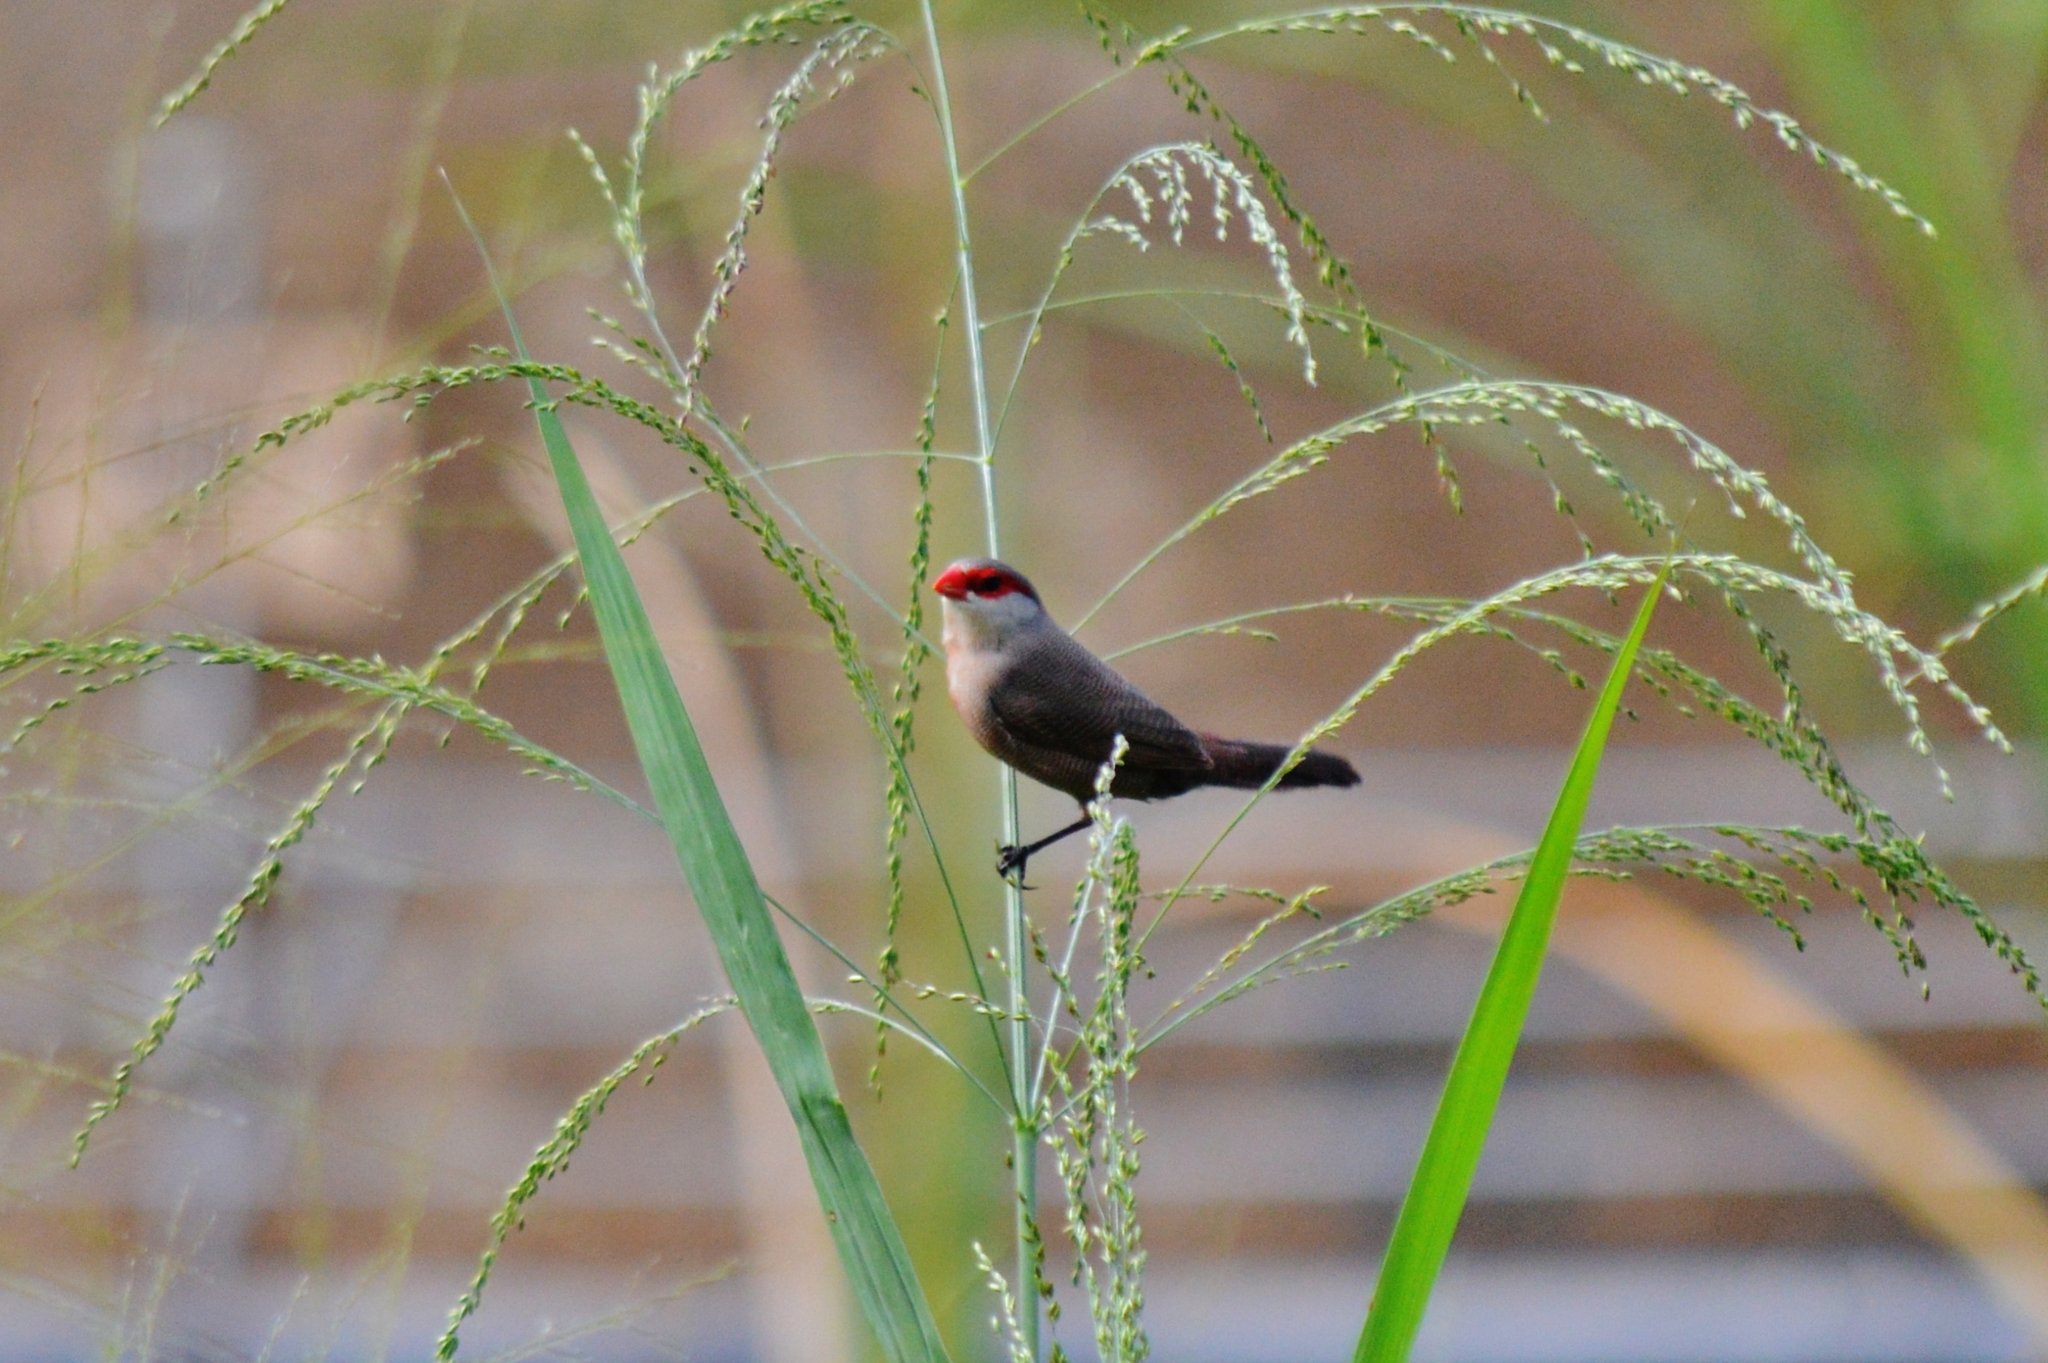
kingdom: Animalia
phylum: Chordata
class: Aves
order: Passeriformes
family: Estrildidae
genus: Estrilda
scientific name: Estrilda astrild
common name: Common waxbill
